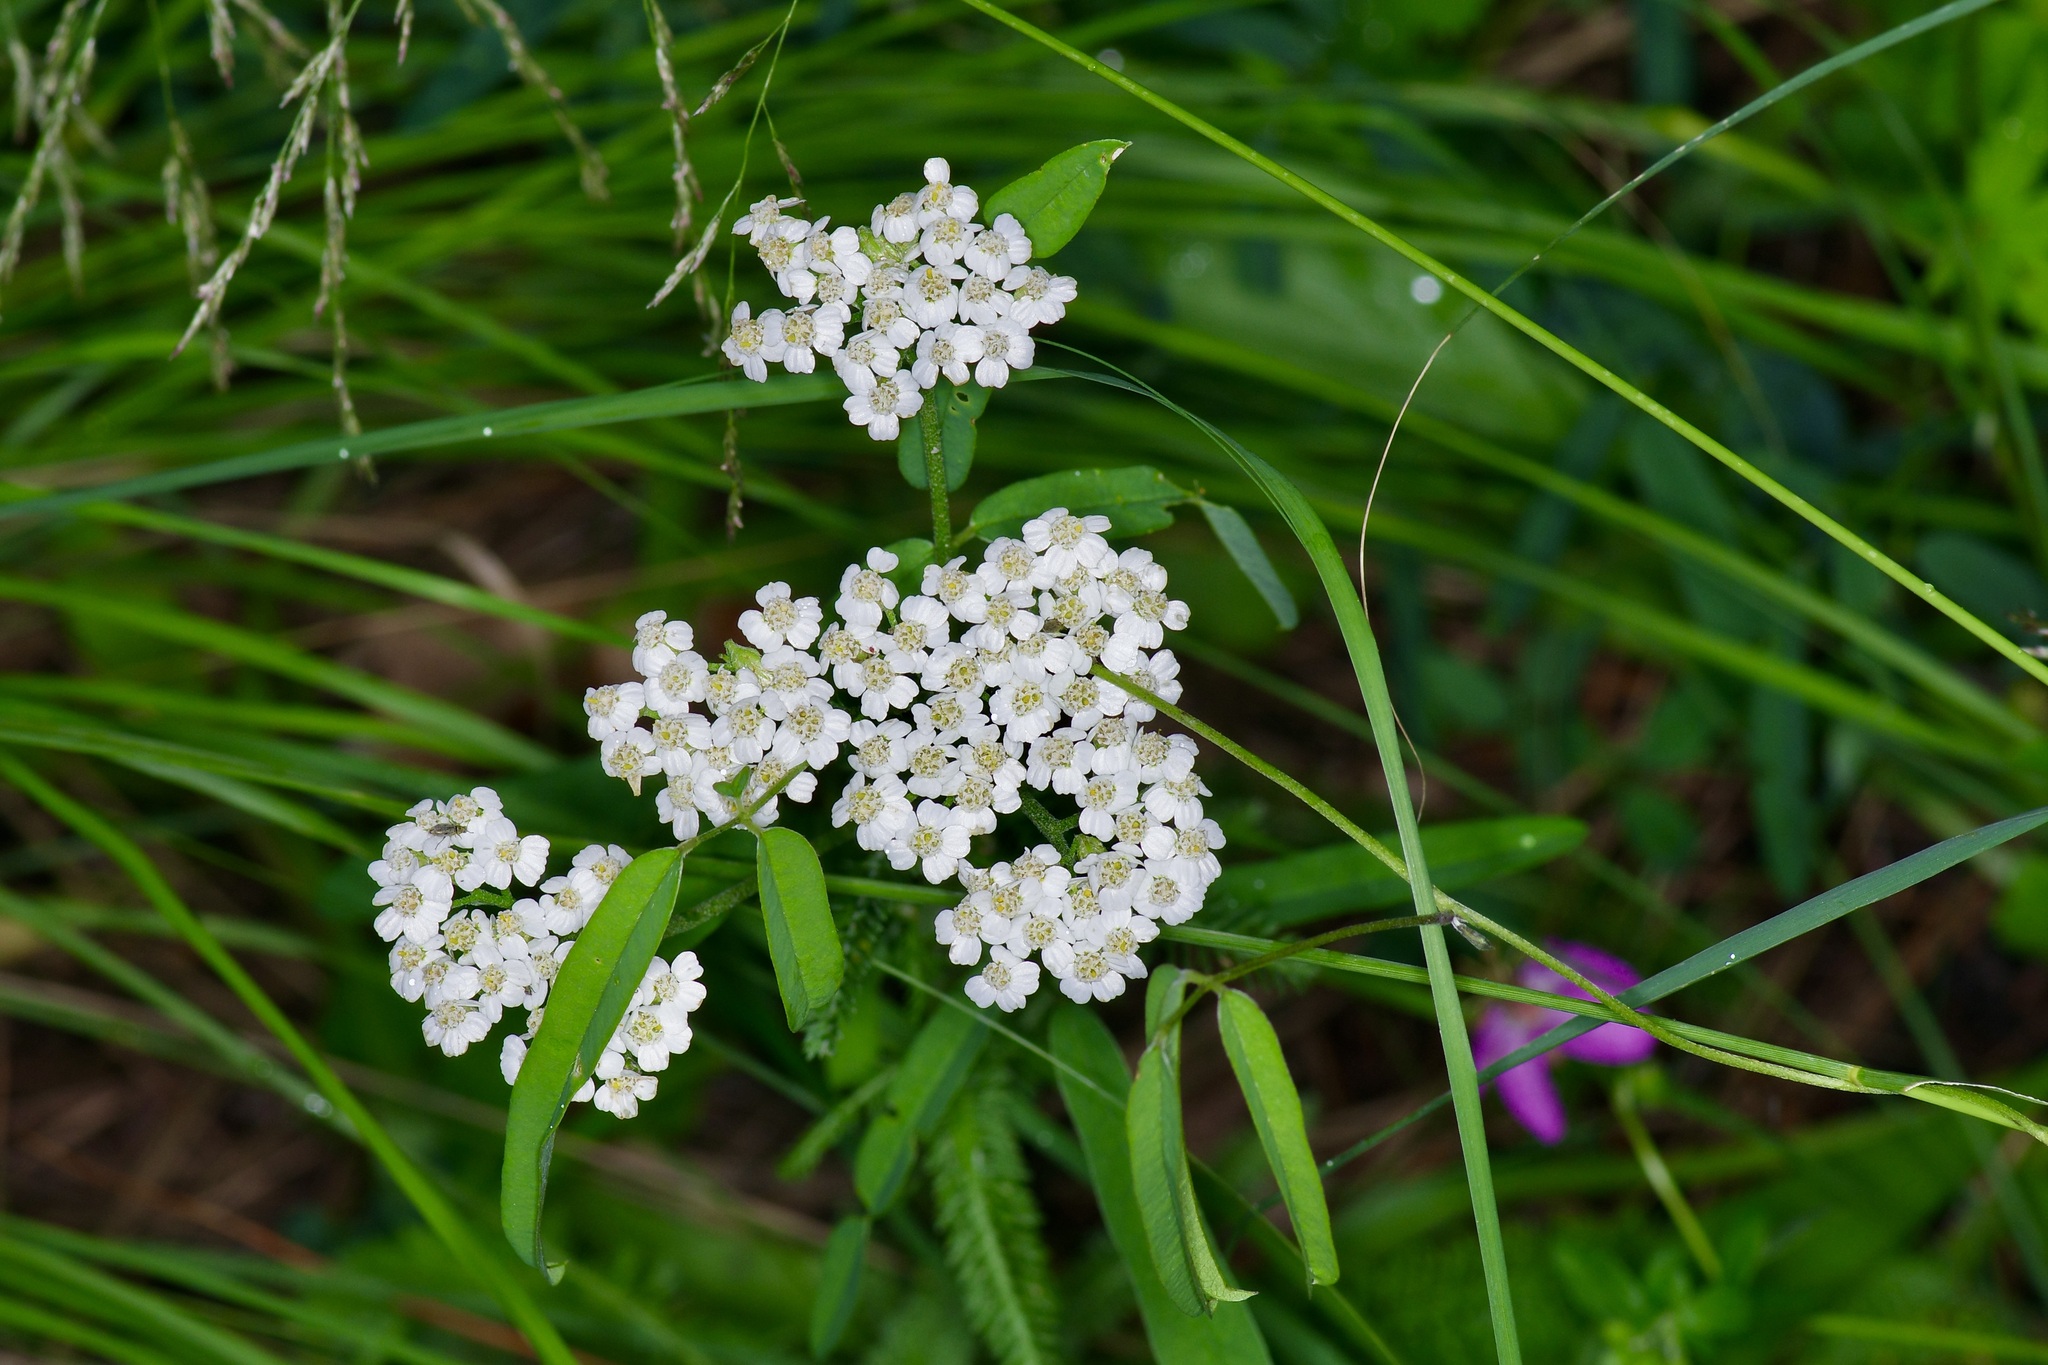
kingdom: Plantae
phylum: Tracheophyta
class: Magnoliopsida
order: Asterales
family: Asteraceae
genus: Achillea
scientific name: Achillea millefolium
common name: Yarrow
